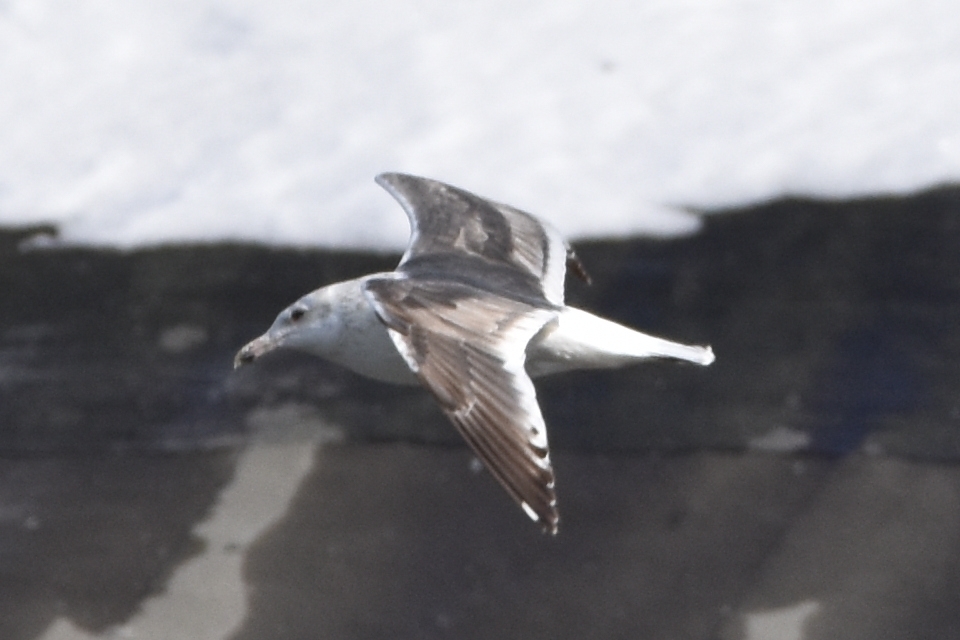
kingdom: Animalia
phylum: Chordata
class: Aves
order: Charadriiformes
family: Laridae
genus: Larus
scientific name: Larus schistisagus
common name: Slaty-backed gull
